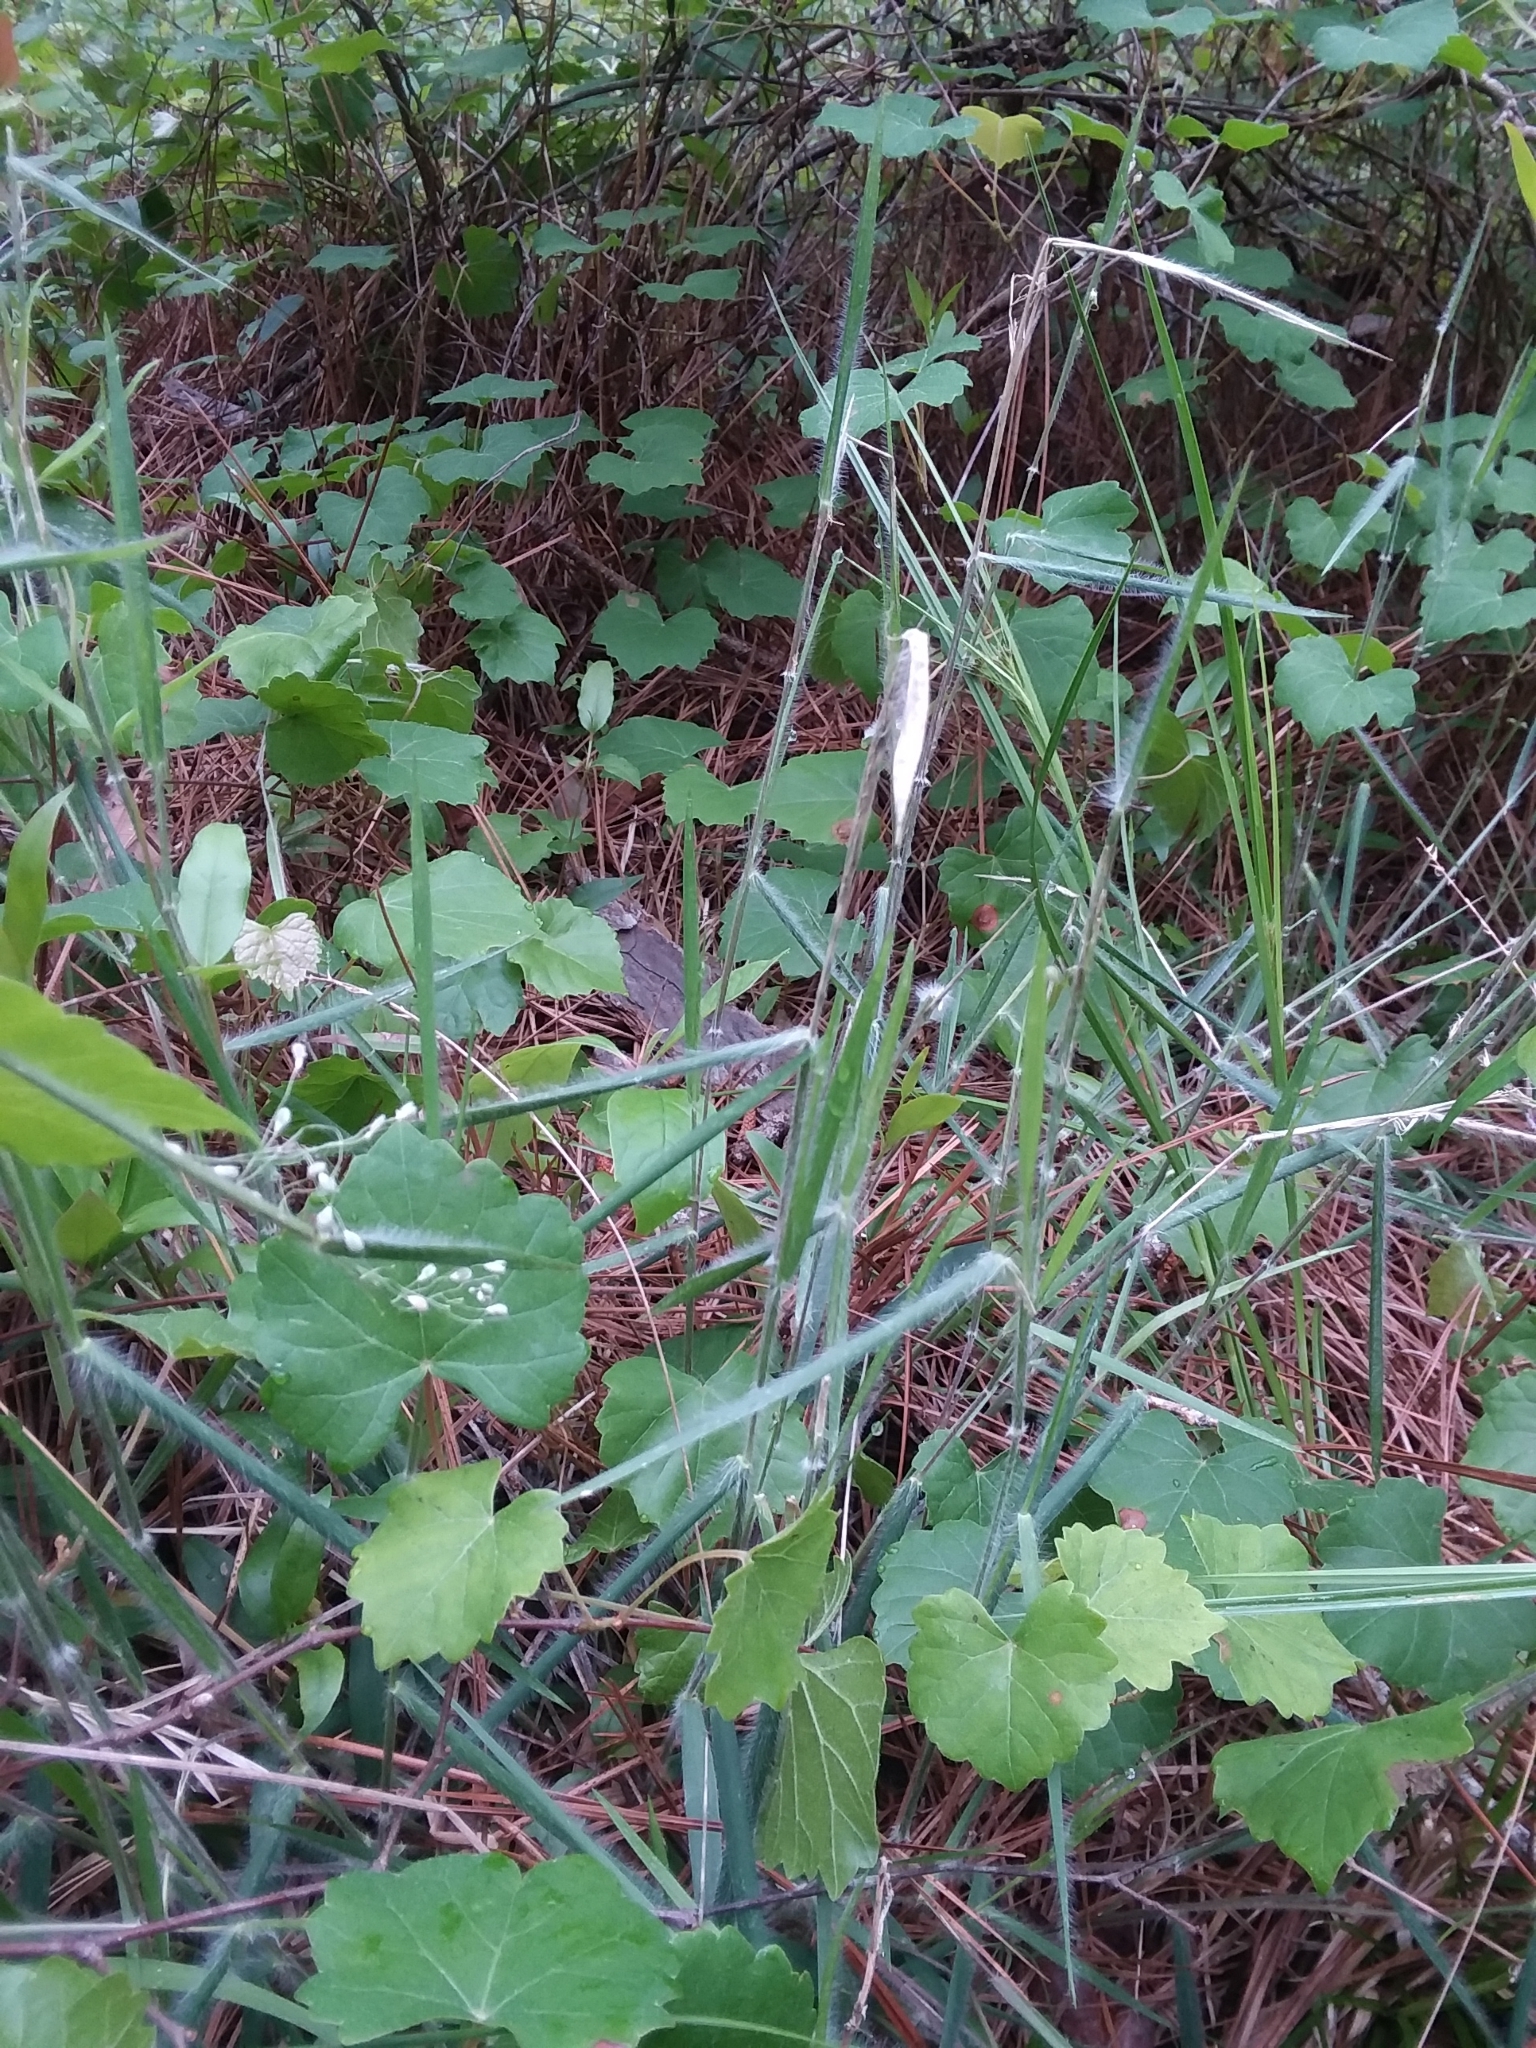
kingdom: Plantae
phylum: Tracheophyta
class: Liliopsida
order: Poales
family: Poaceae
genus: Dichanthelium
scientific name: Dichanthelium consanguineum
